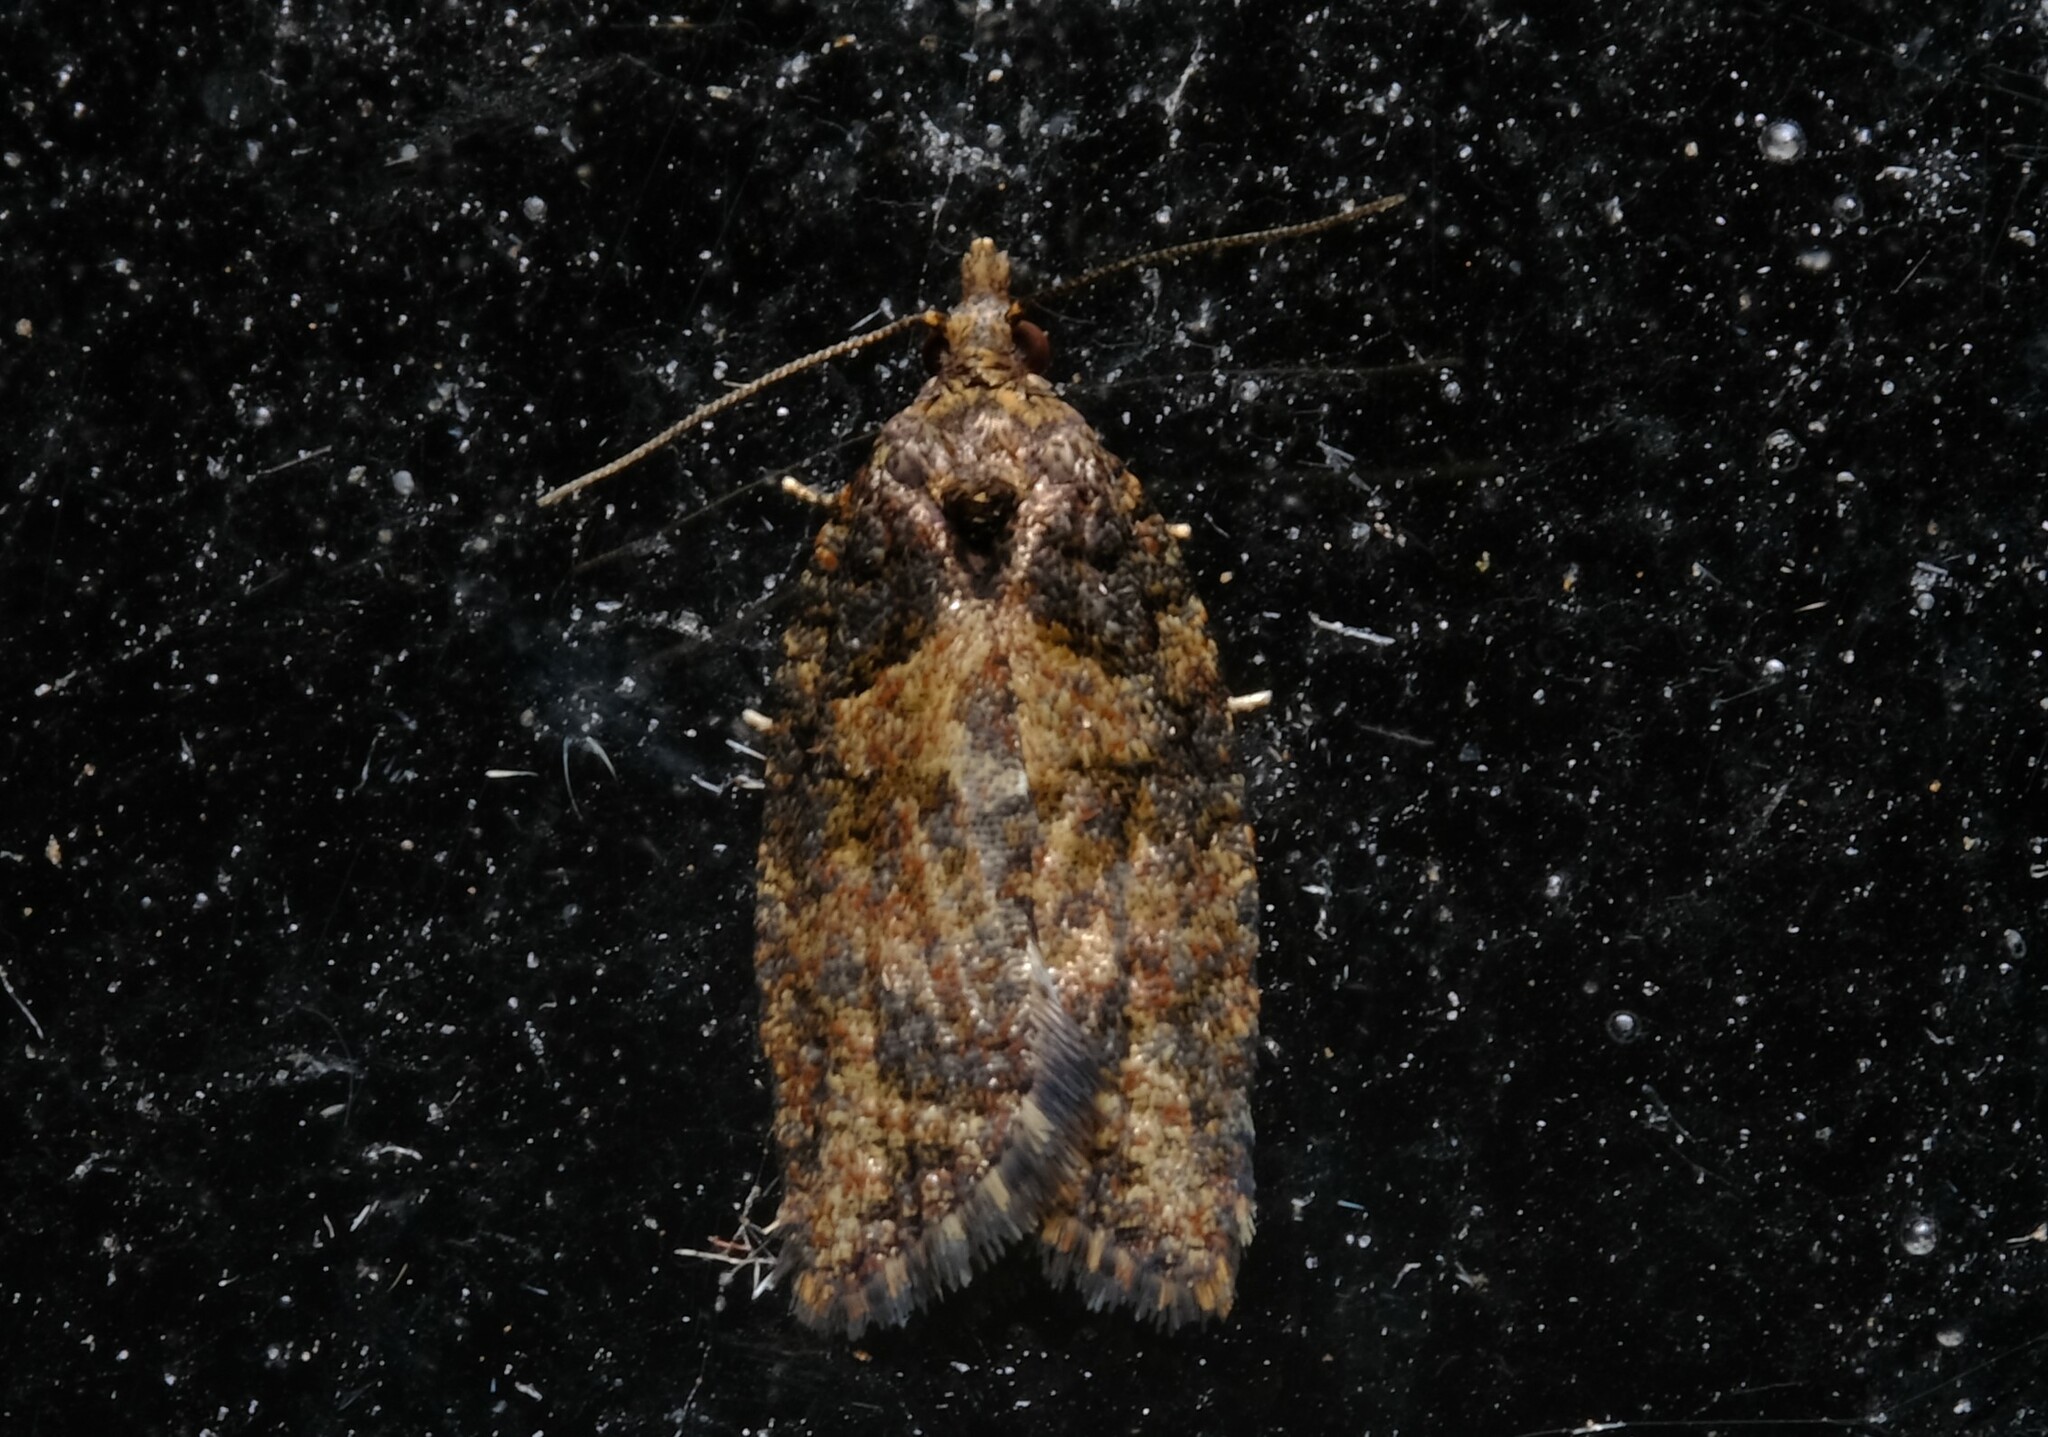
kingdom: Animalia
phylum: Arthropoda
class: Insecta
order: Lepidoptera
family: Tortricidae
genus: Capua
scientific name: Capua dura
